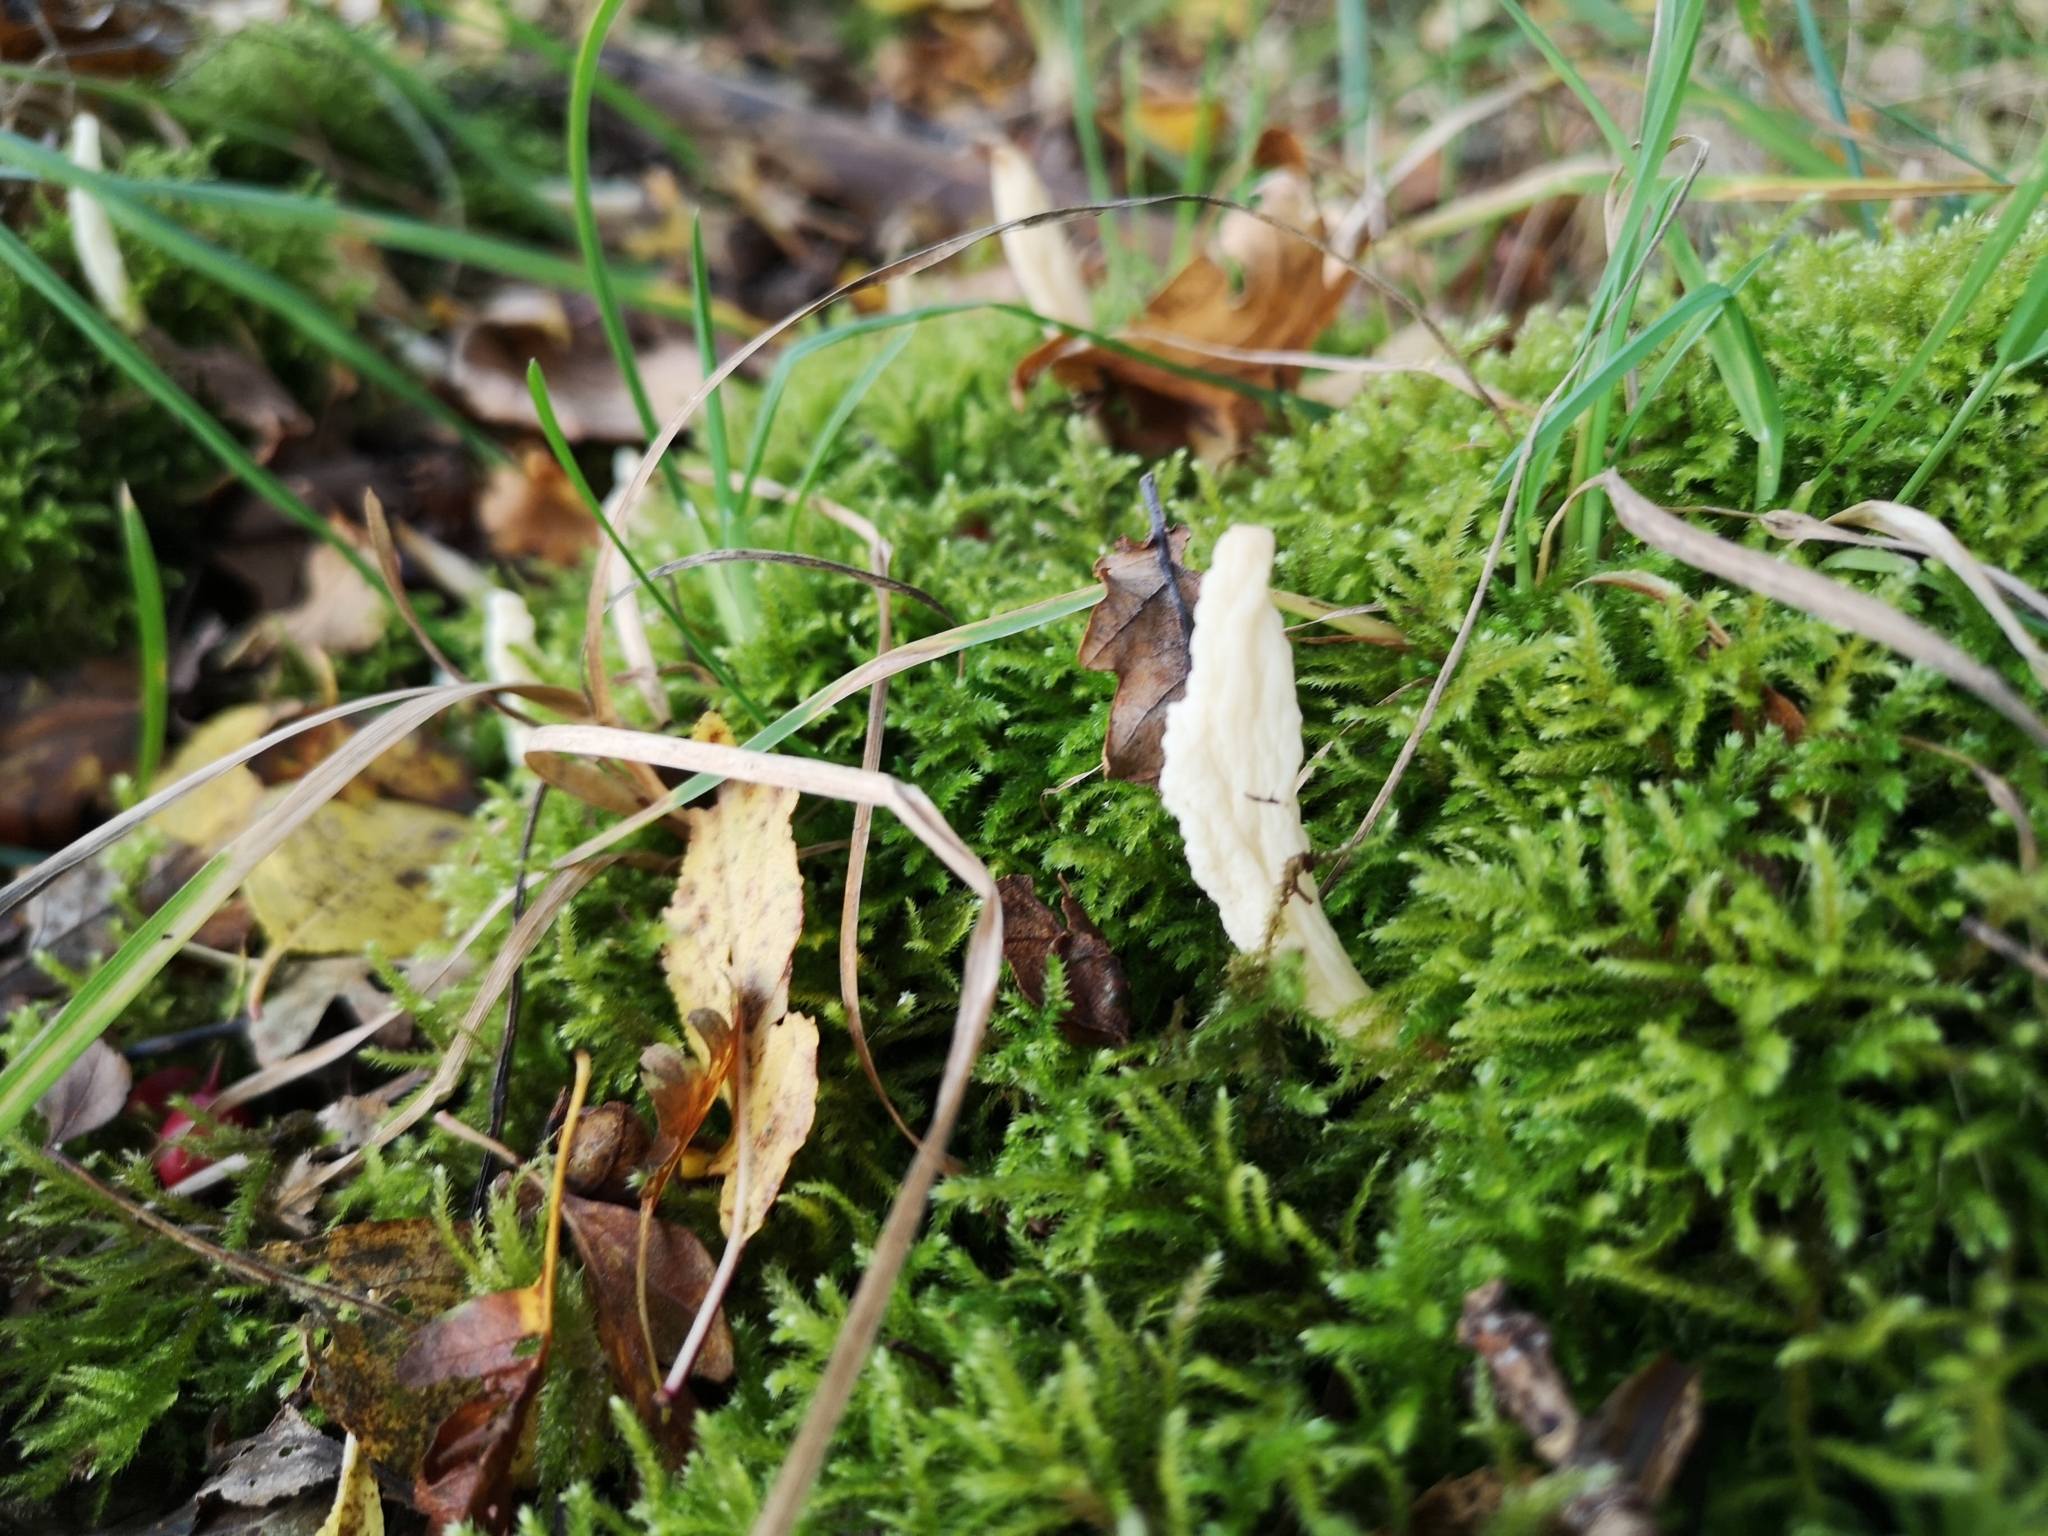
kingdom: Fungi
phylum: Basidiomycota
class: Agaricomycetes
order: Cantharellales
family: Hydnaceae
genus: Clavulina
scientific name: Clavulina rugosa
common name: Wrinkled club
